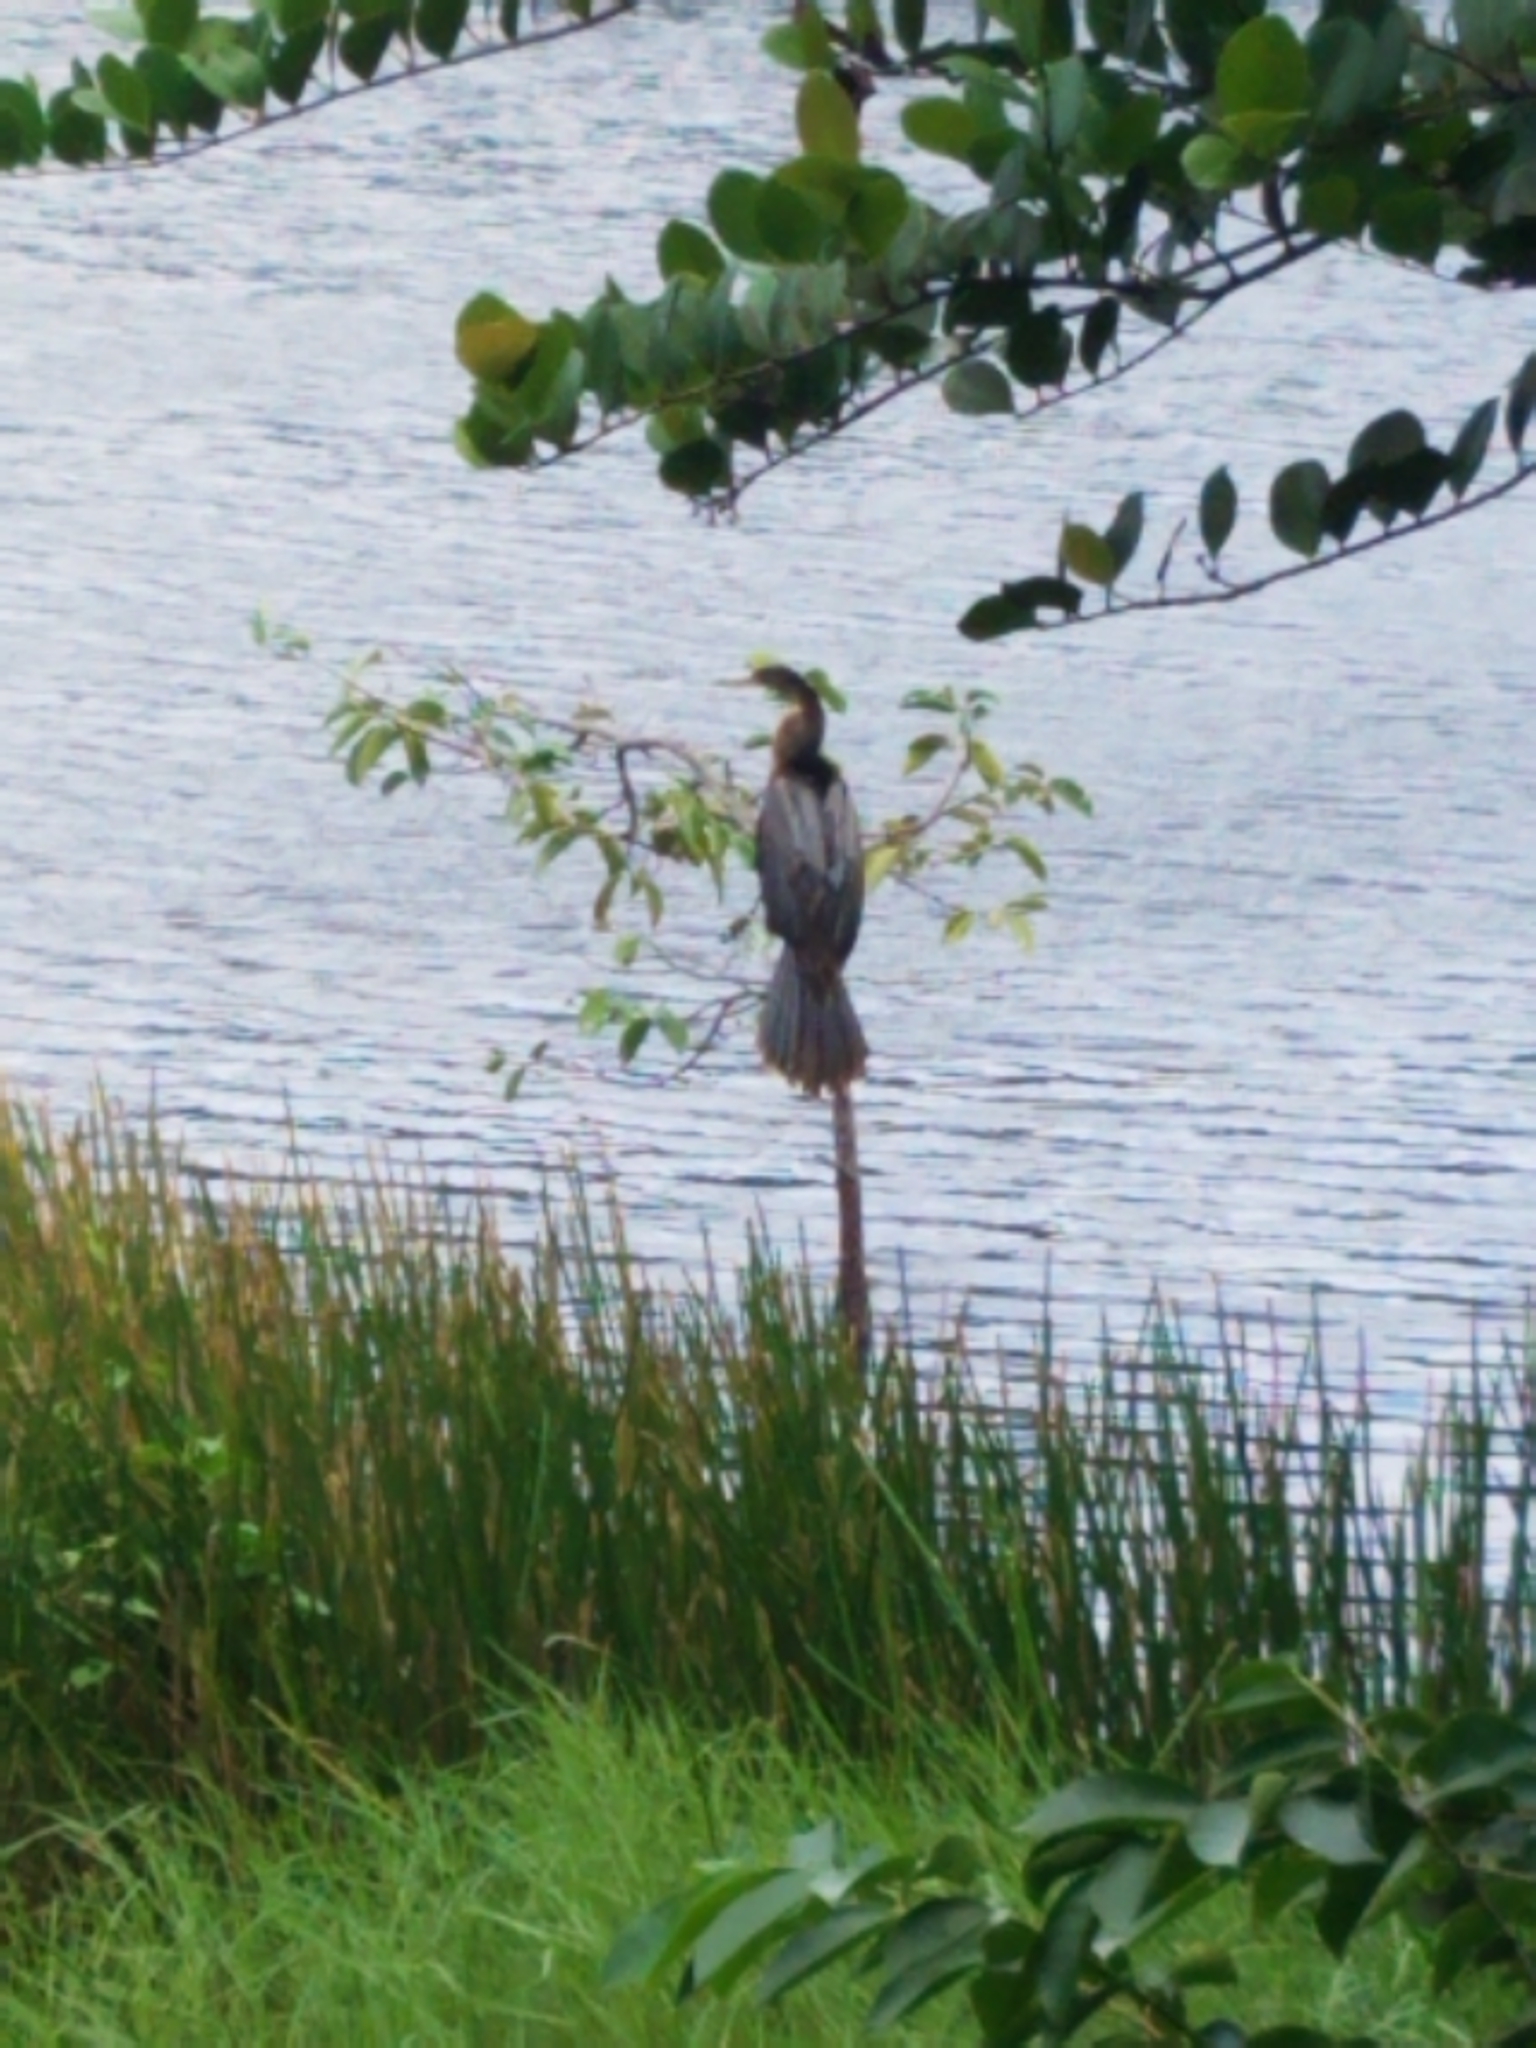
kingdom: Animalia
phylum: Chordata
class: Aves
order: Suliformes
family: Anhingidae
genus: Anhinga
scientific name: Anhinga anhinga
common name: Anhinga
